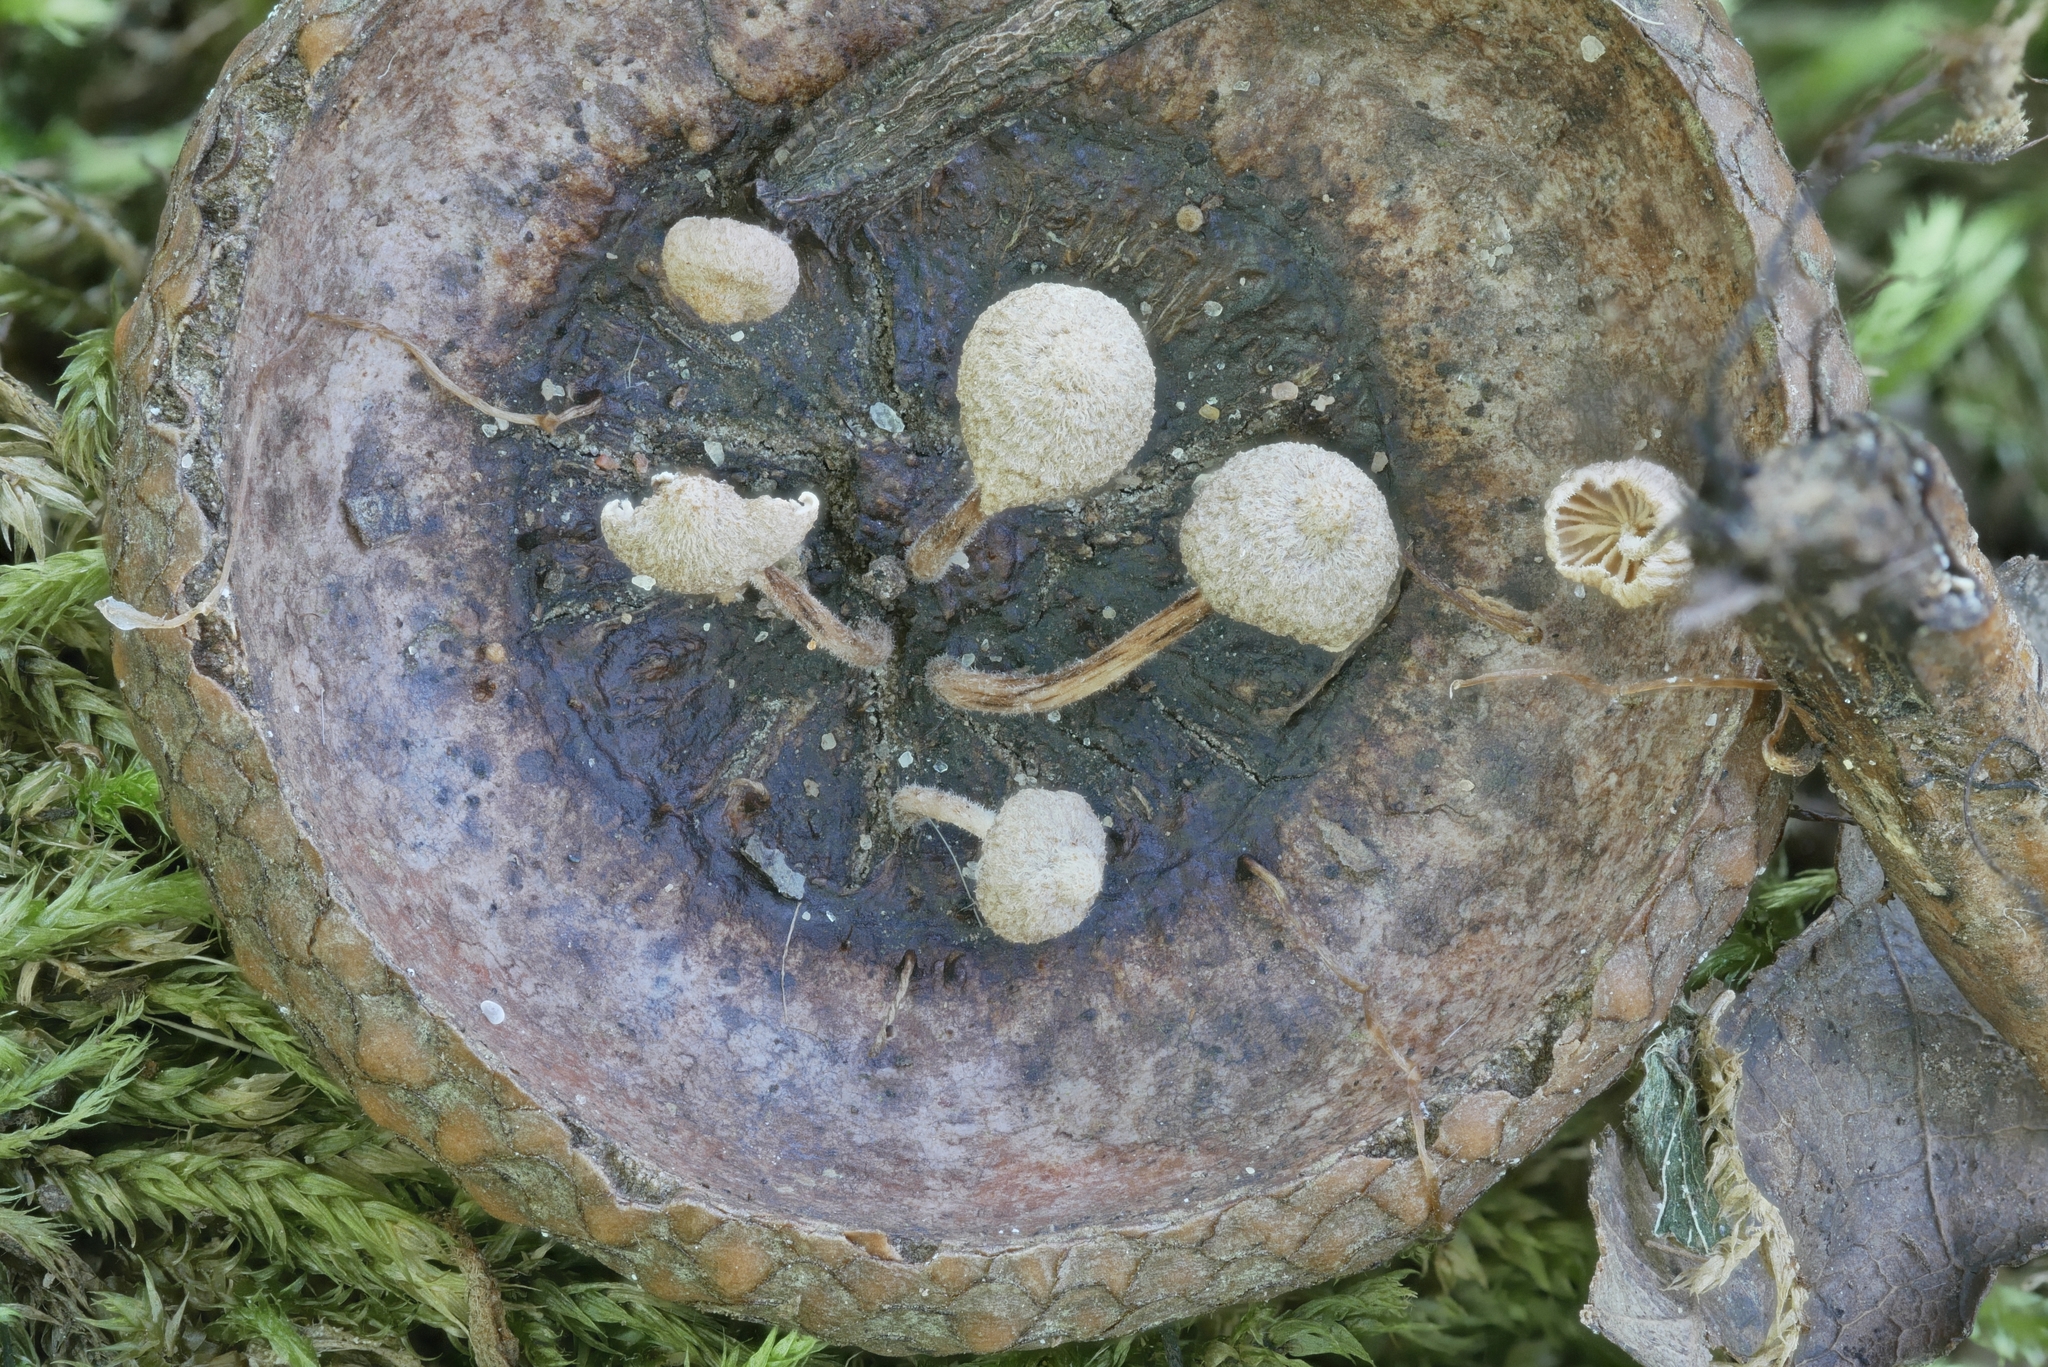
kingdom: Fungi
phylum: Basidiomycota
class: Agaricomycetes
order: Agaricales
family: Omphalotaceae
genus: Marasmiellus
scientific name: Marasmiellus rhizomorphogenus
